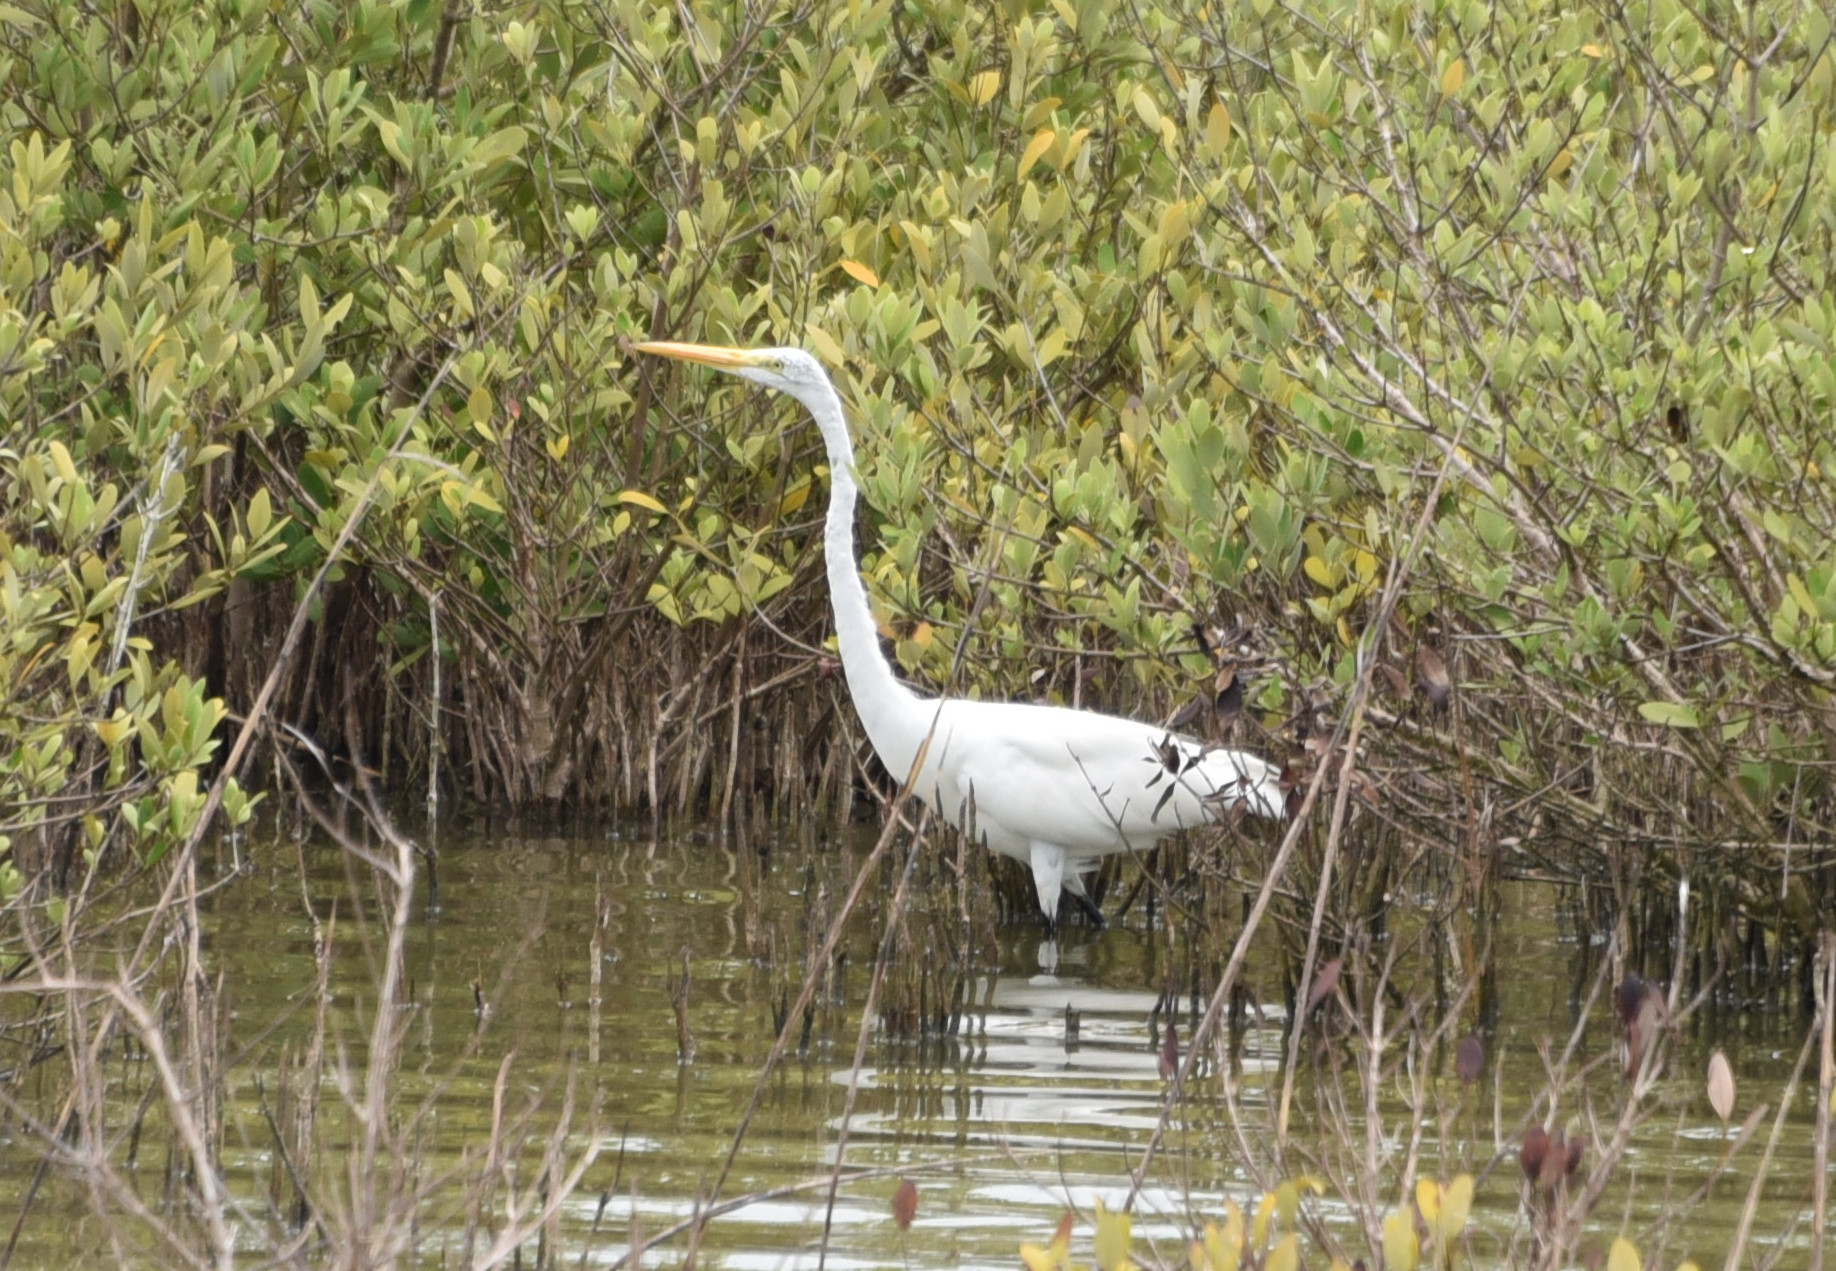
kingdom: Animalia
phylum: Chordata
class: Aves
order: Pelecaniformes
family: Ardeidae
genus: Ardea
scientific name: Ardea alba
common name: Great egret
